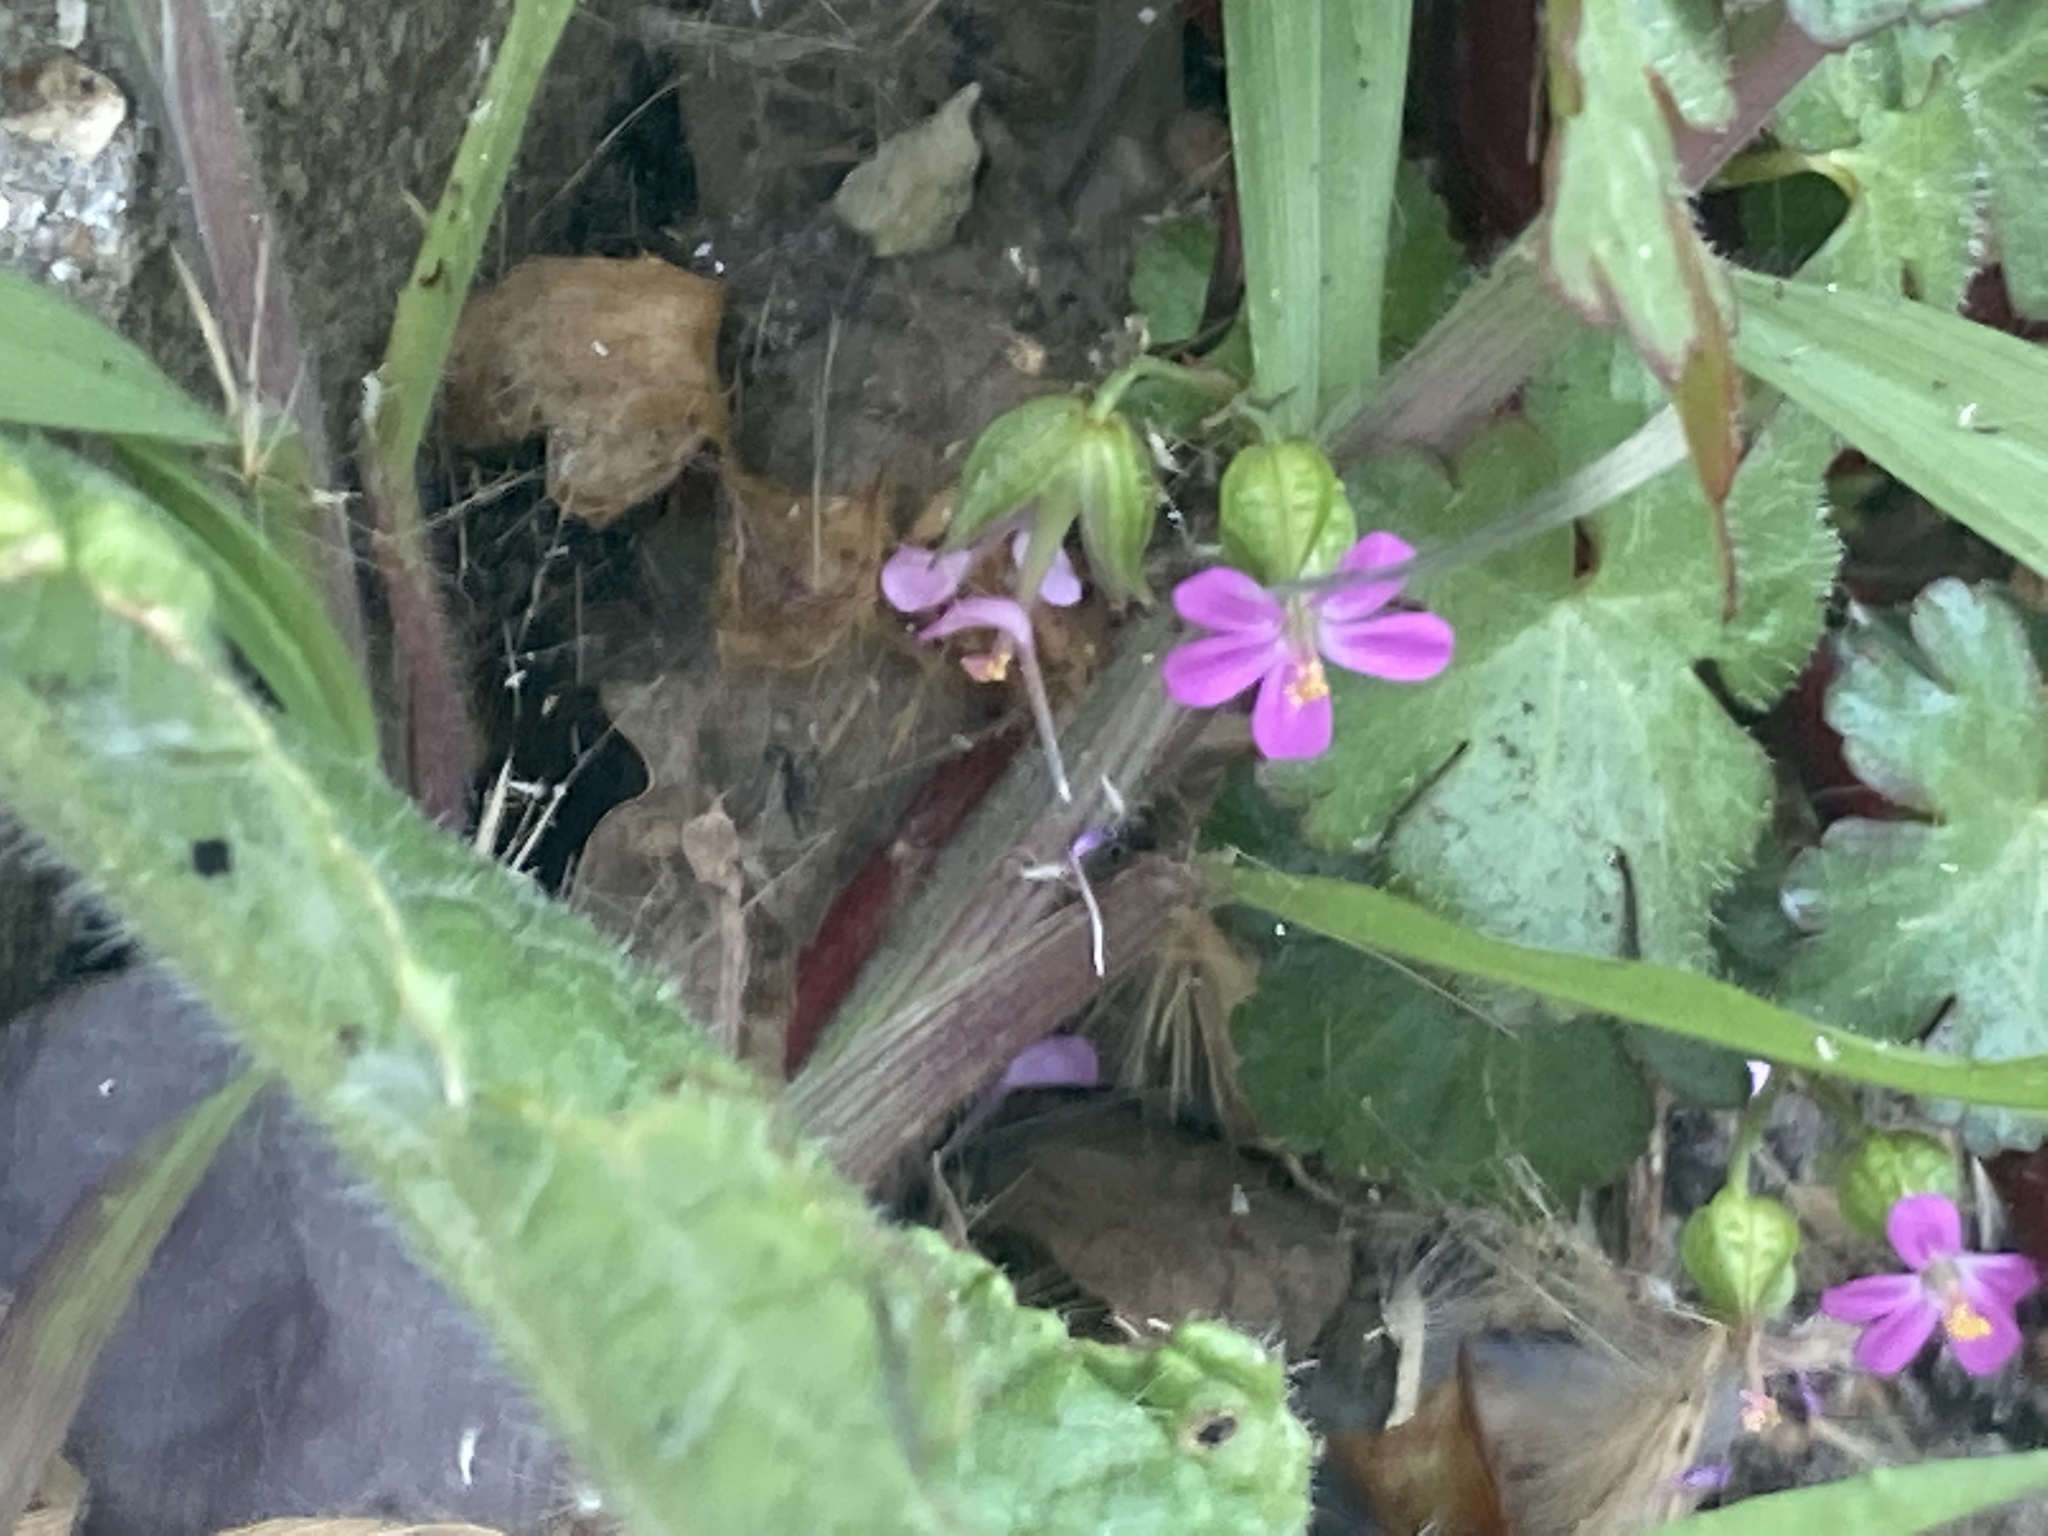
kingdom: Plantae
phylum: Tracheophyta
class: Magnoliopsida
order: Geraniales
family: Geraniaceae
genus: Geranium
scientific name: Geranium lucidum
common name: Shining crane's-bill
